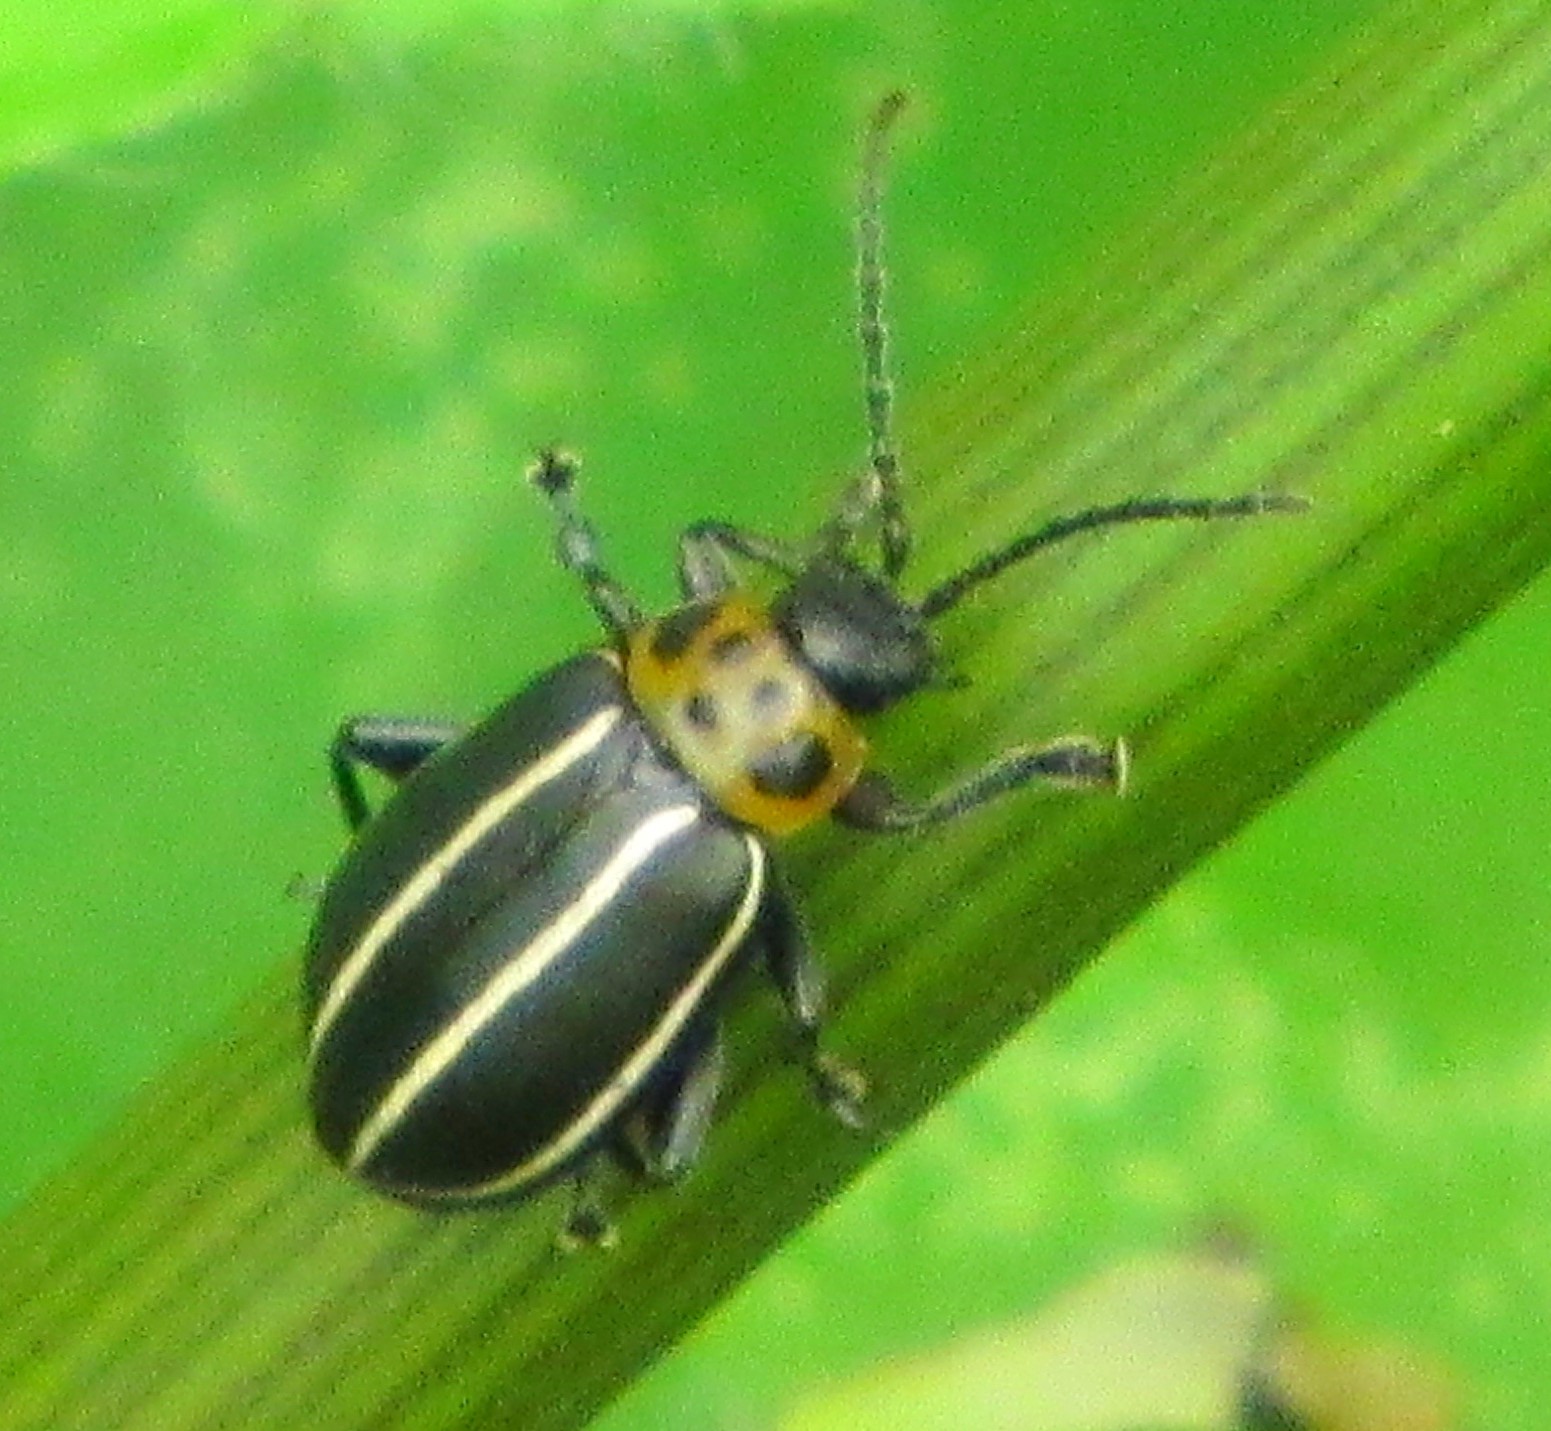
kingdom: Animalia
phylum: Arthropoda
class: Insecta
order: Coleoptera
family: Chrysomelidae
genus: Disonycha
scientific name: Disonycha conjugata
